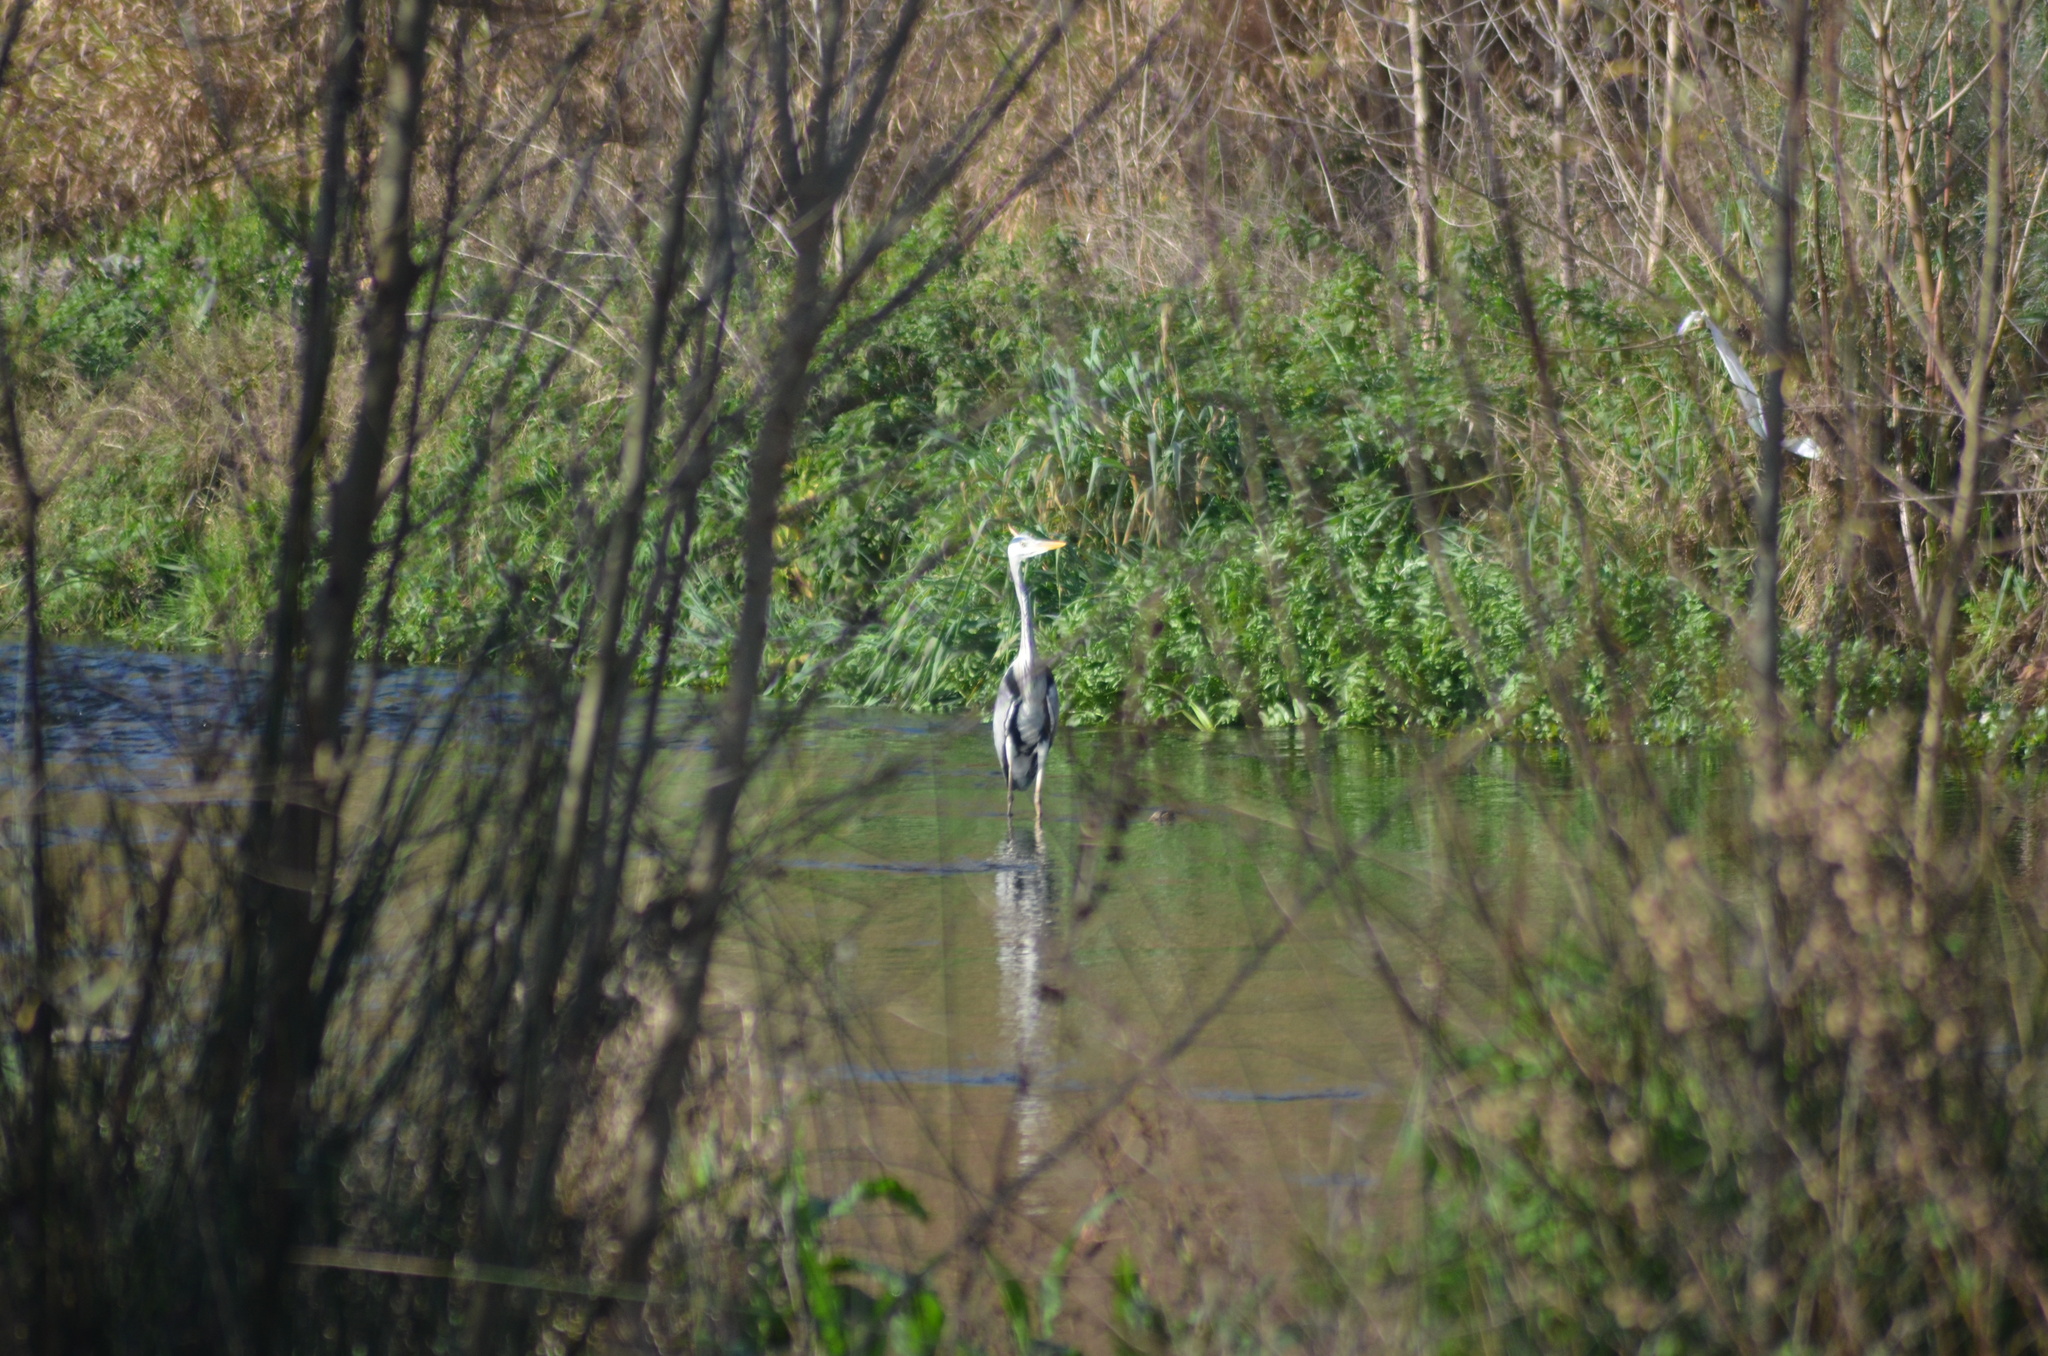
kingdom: Animalia
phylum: Chordata
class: Aves
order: Pelecaniformes
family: Ardeidae
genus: Ardea
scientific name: Ardea cinerea
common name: Grey heron
